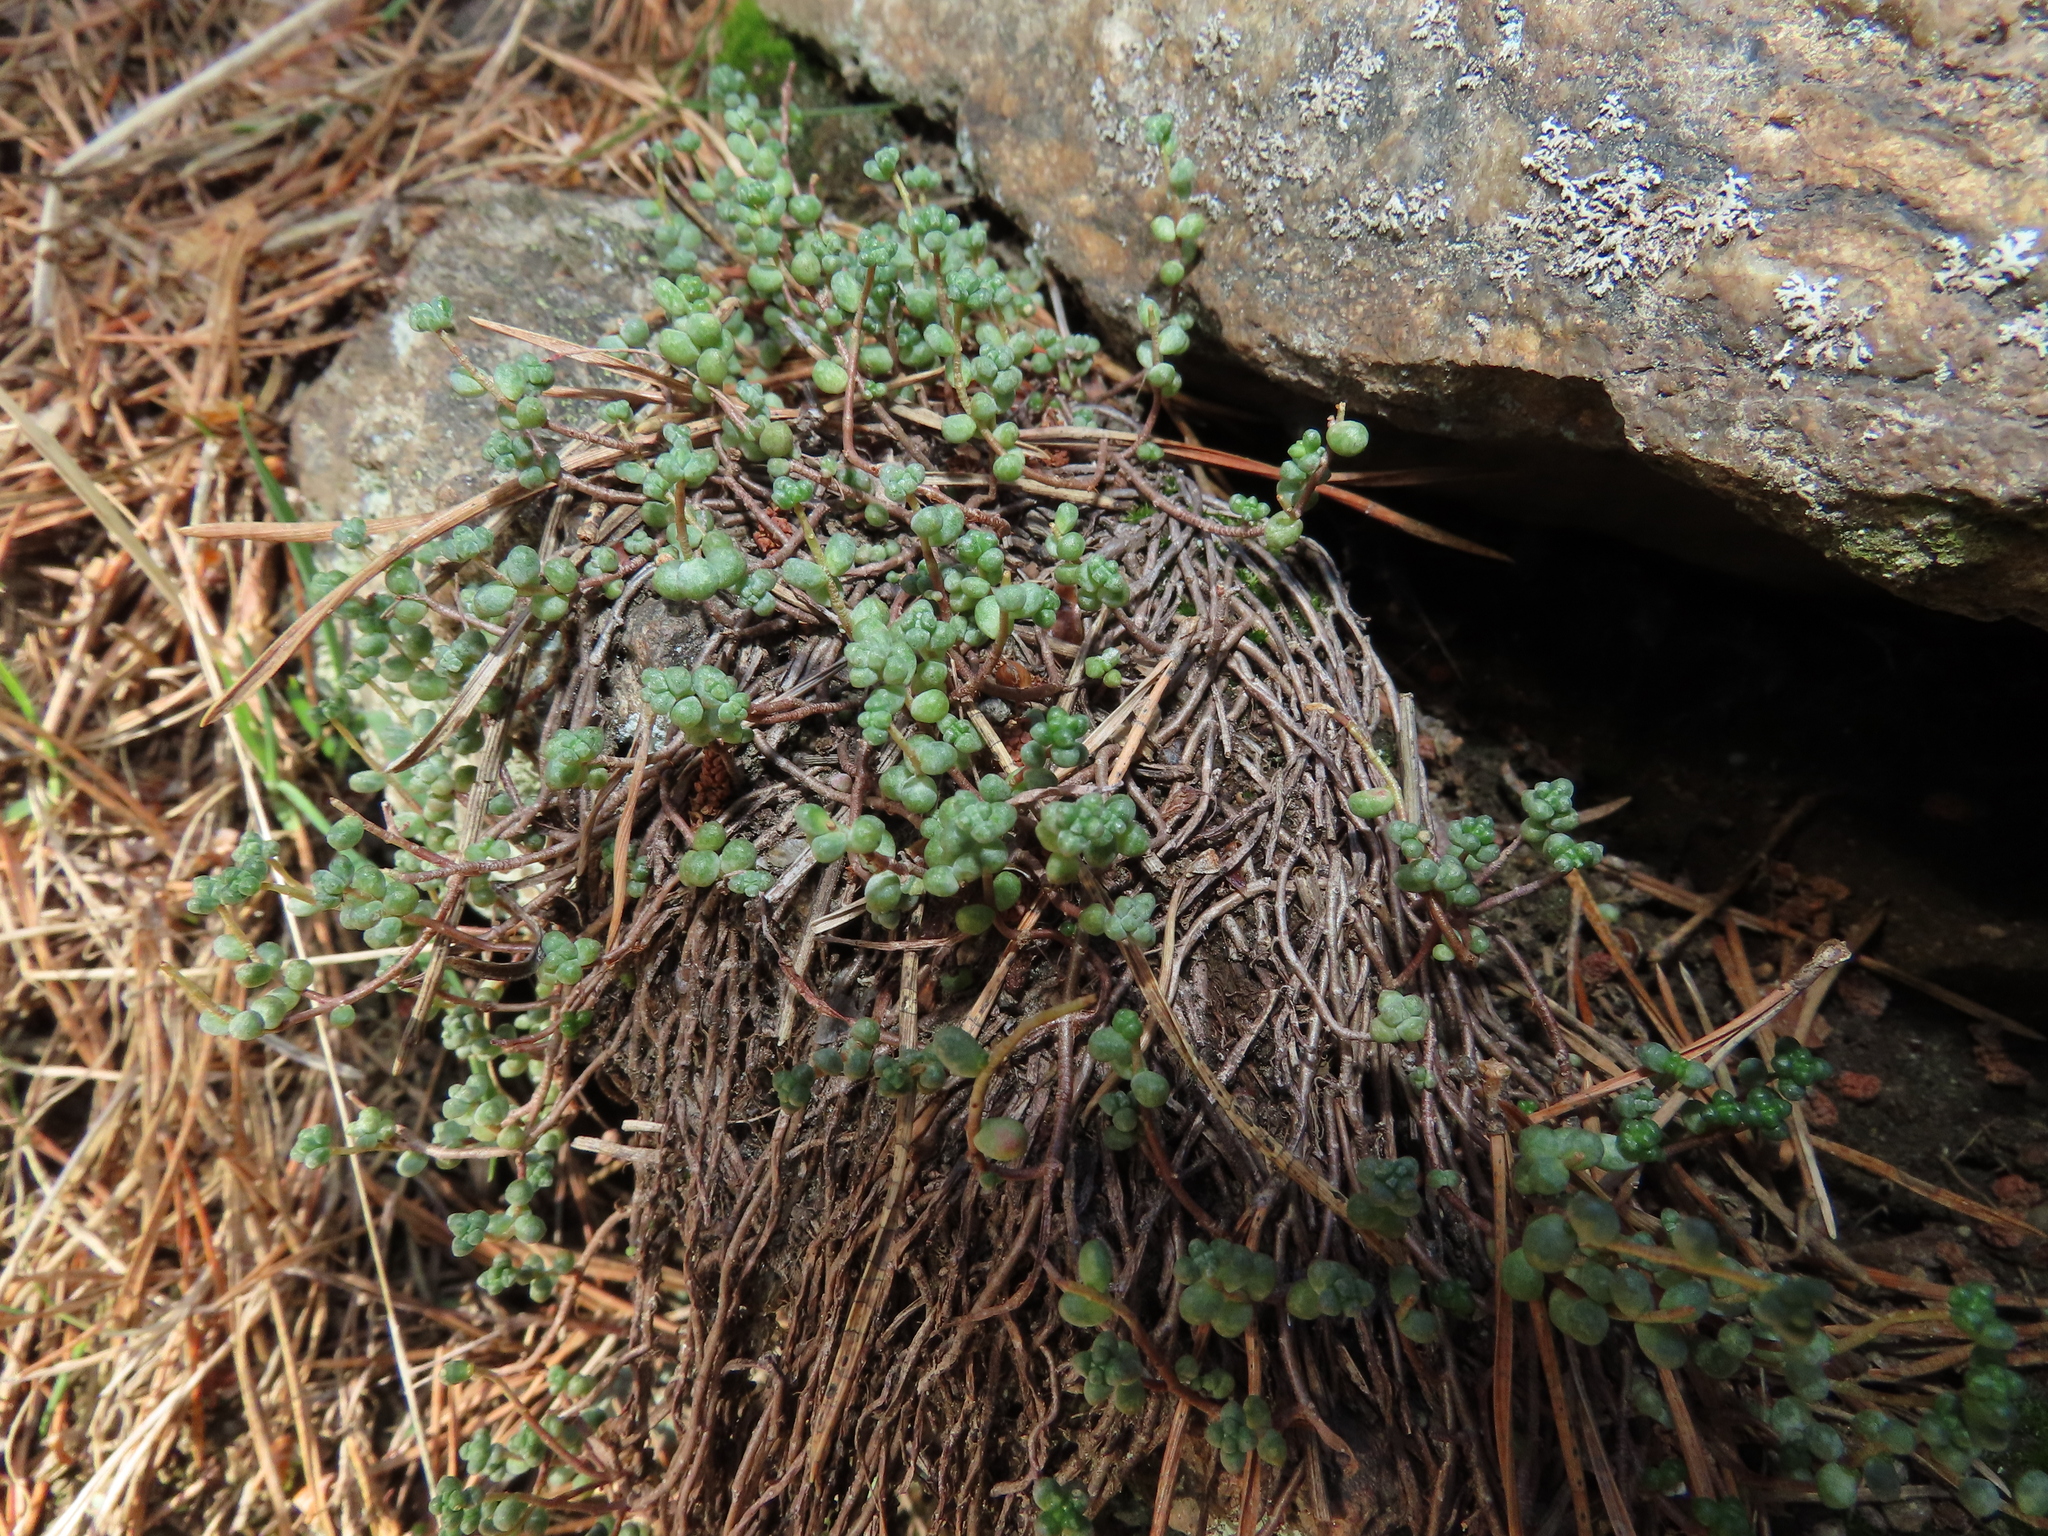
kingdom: Plantae
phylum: Tracheophyta
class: Magnoliopsida
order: Saxifragales
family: Crassulaceae
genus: Sedum
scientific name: Sedum brevifolium
